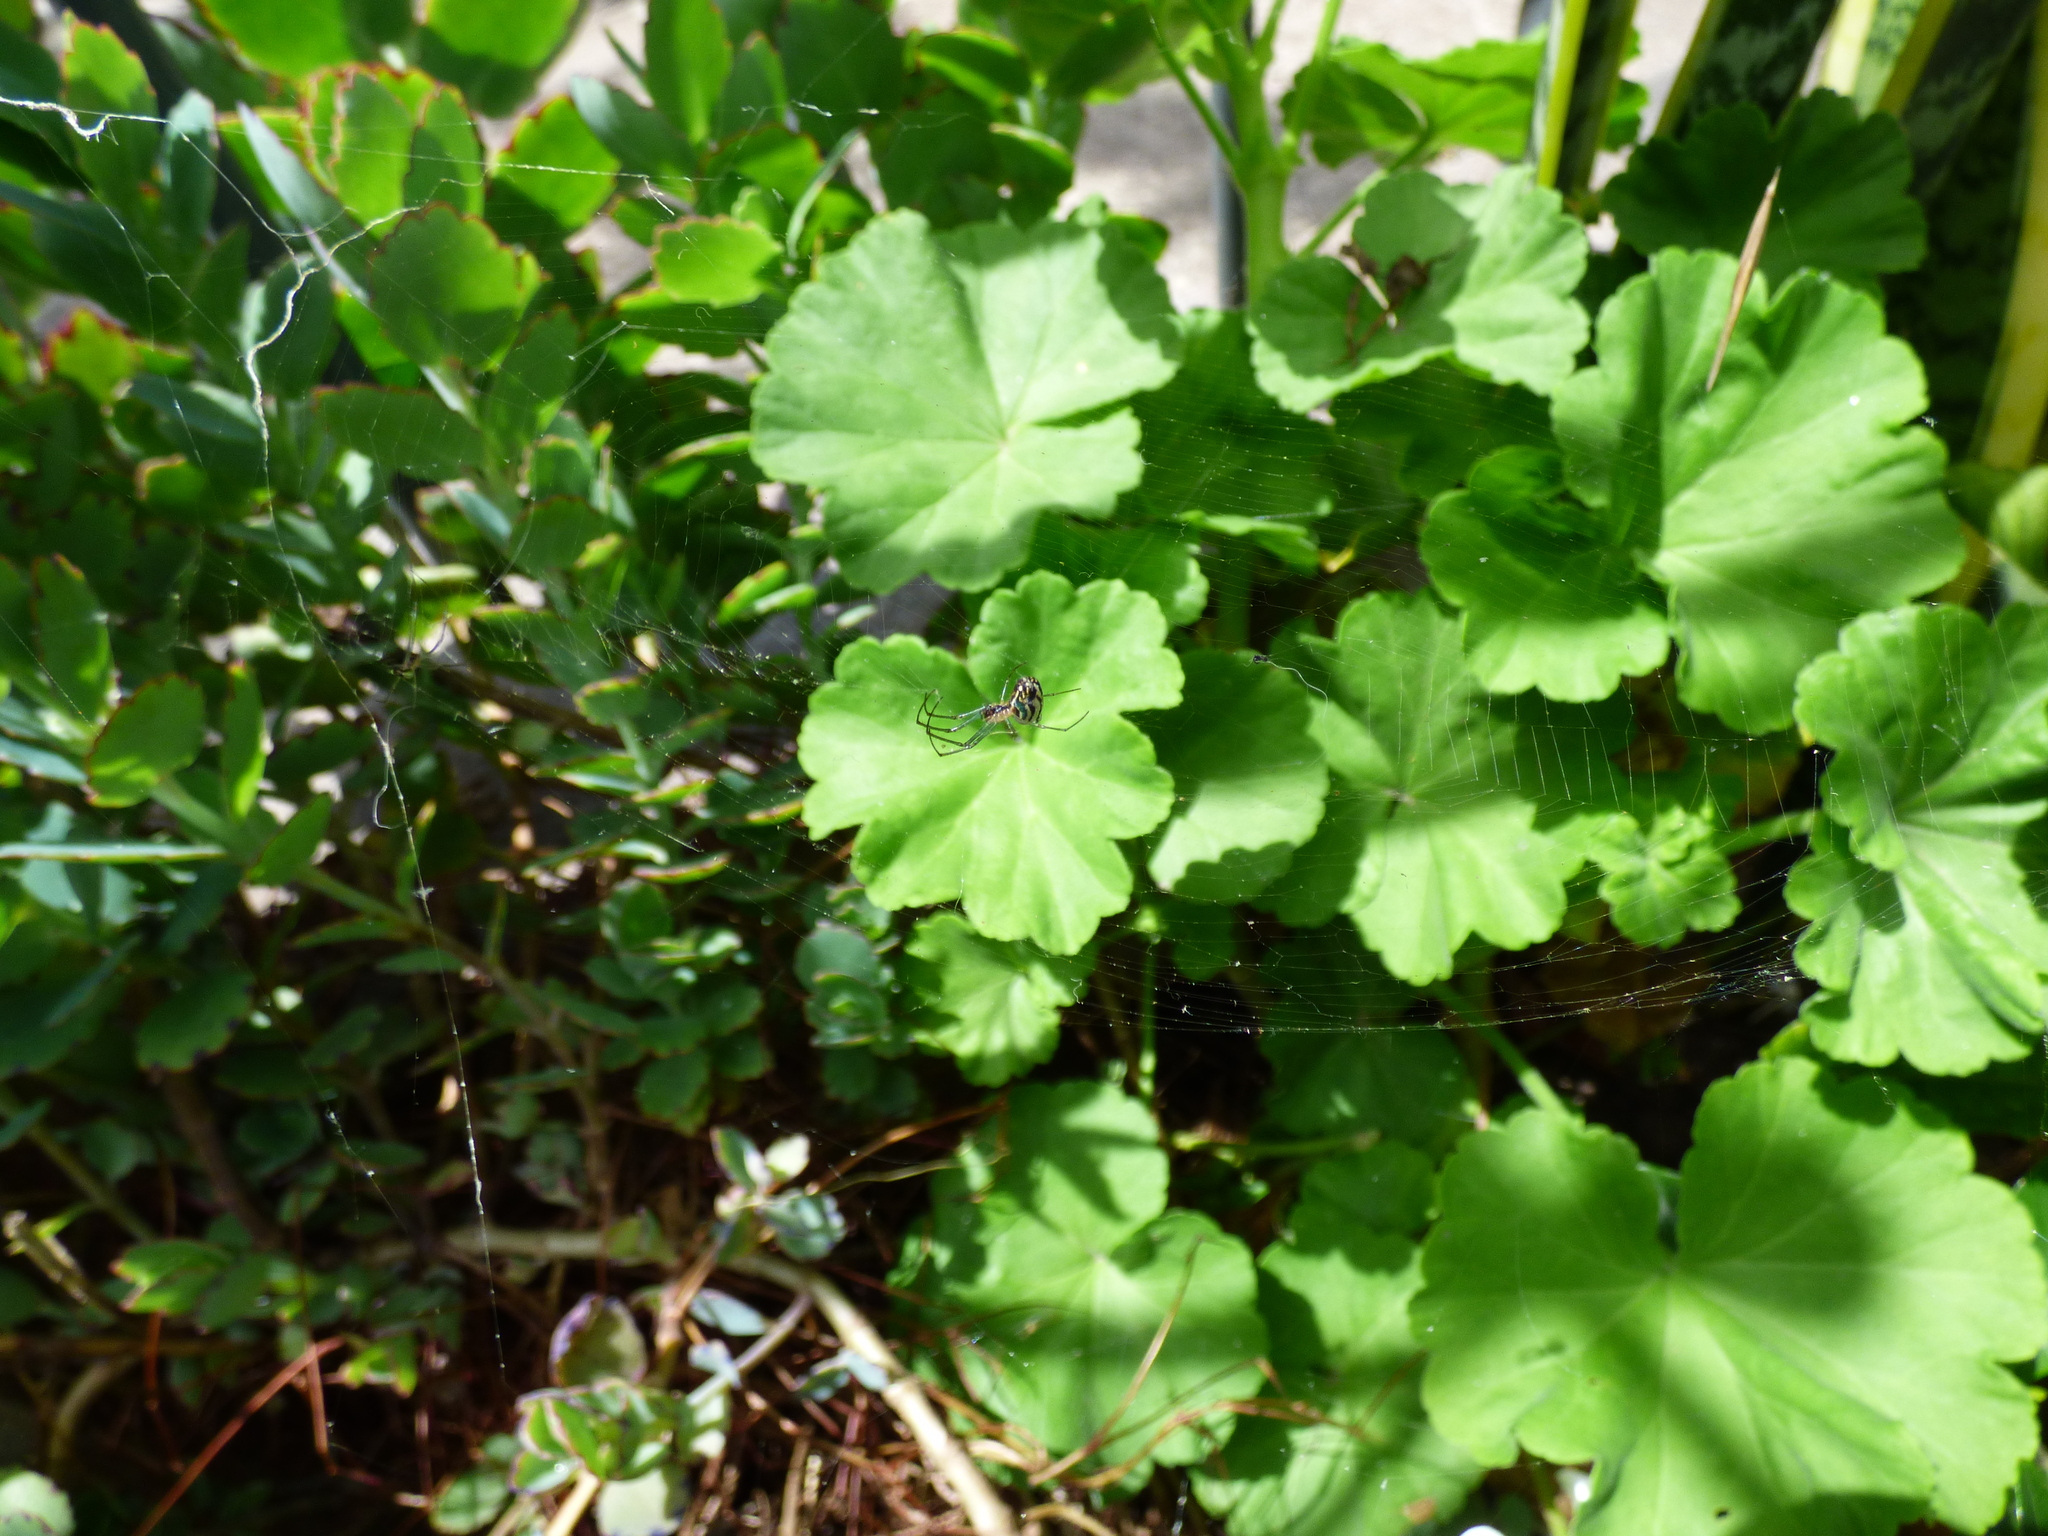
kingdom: Animalia
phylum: Arthropoda
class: Arachnida
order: Araneae
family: Tetragnathidae
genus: Leucauge
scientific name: Leucauge volupis
